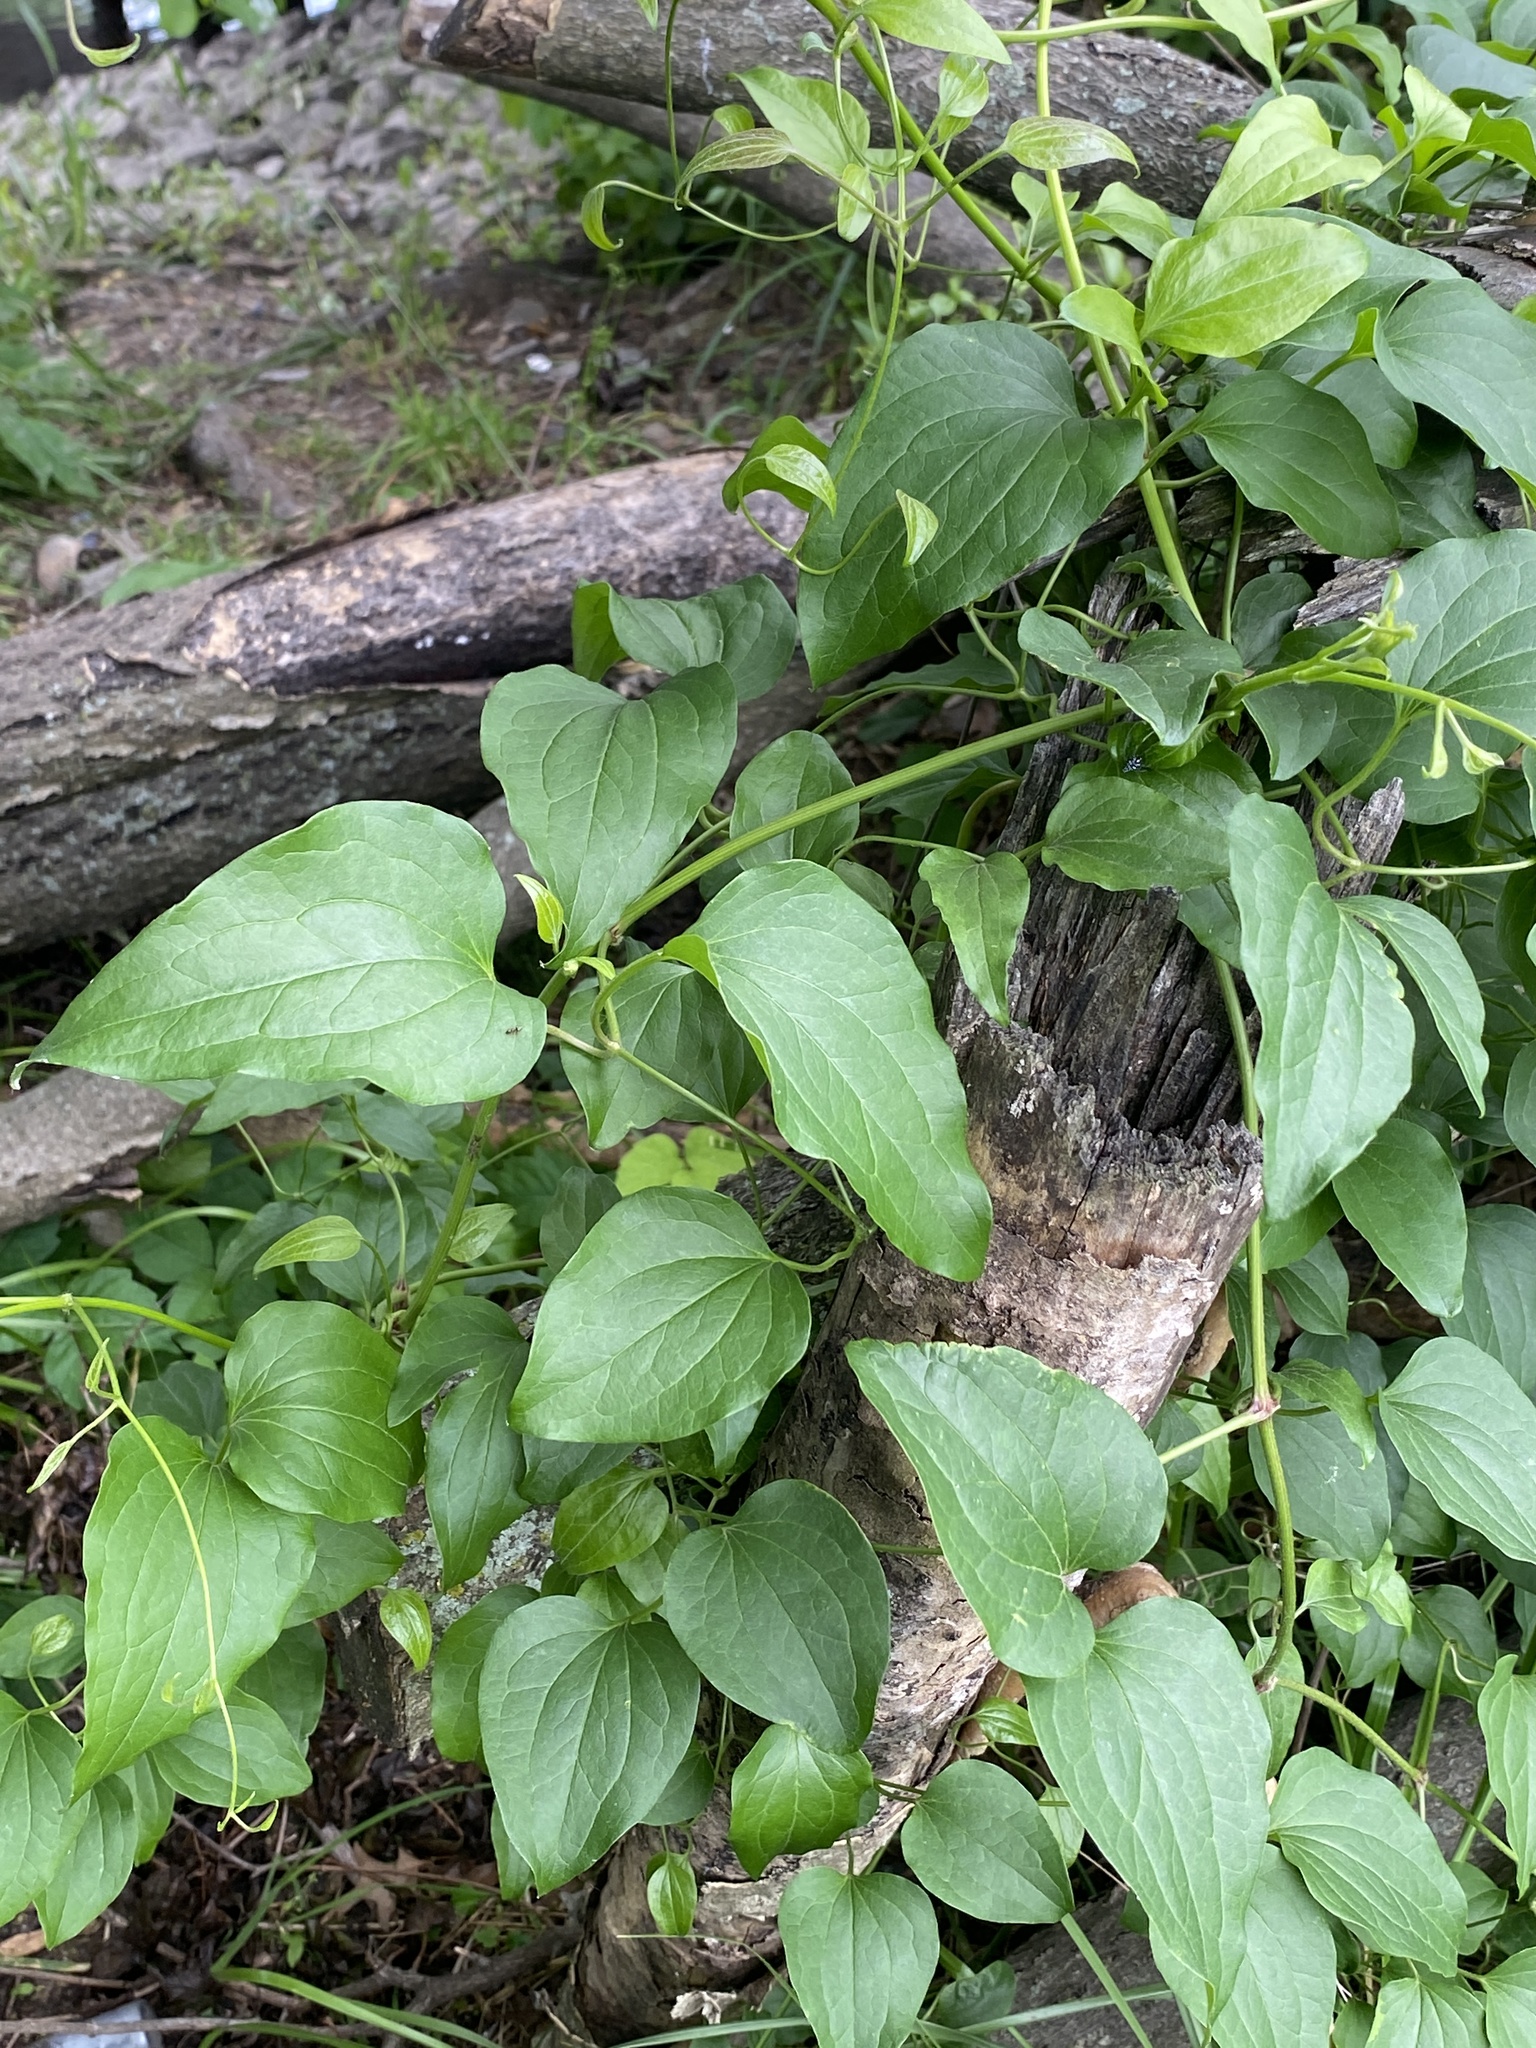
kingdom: Plantae
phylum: Tracheophyta
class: Magnoliopsida
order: Ranunculales
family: Ranunculaceae
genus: Clematis
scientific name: Clematis terniflora
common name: Sweet autumn clematis
